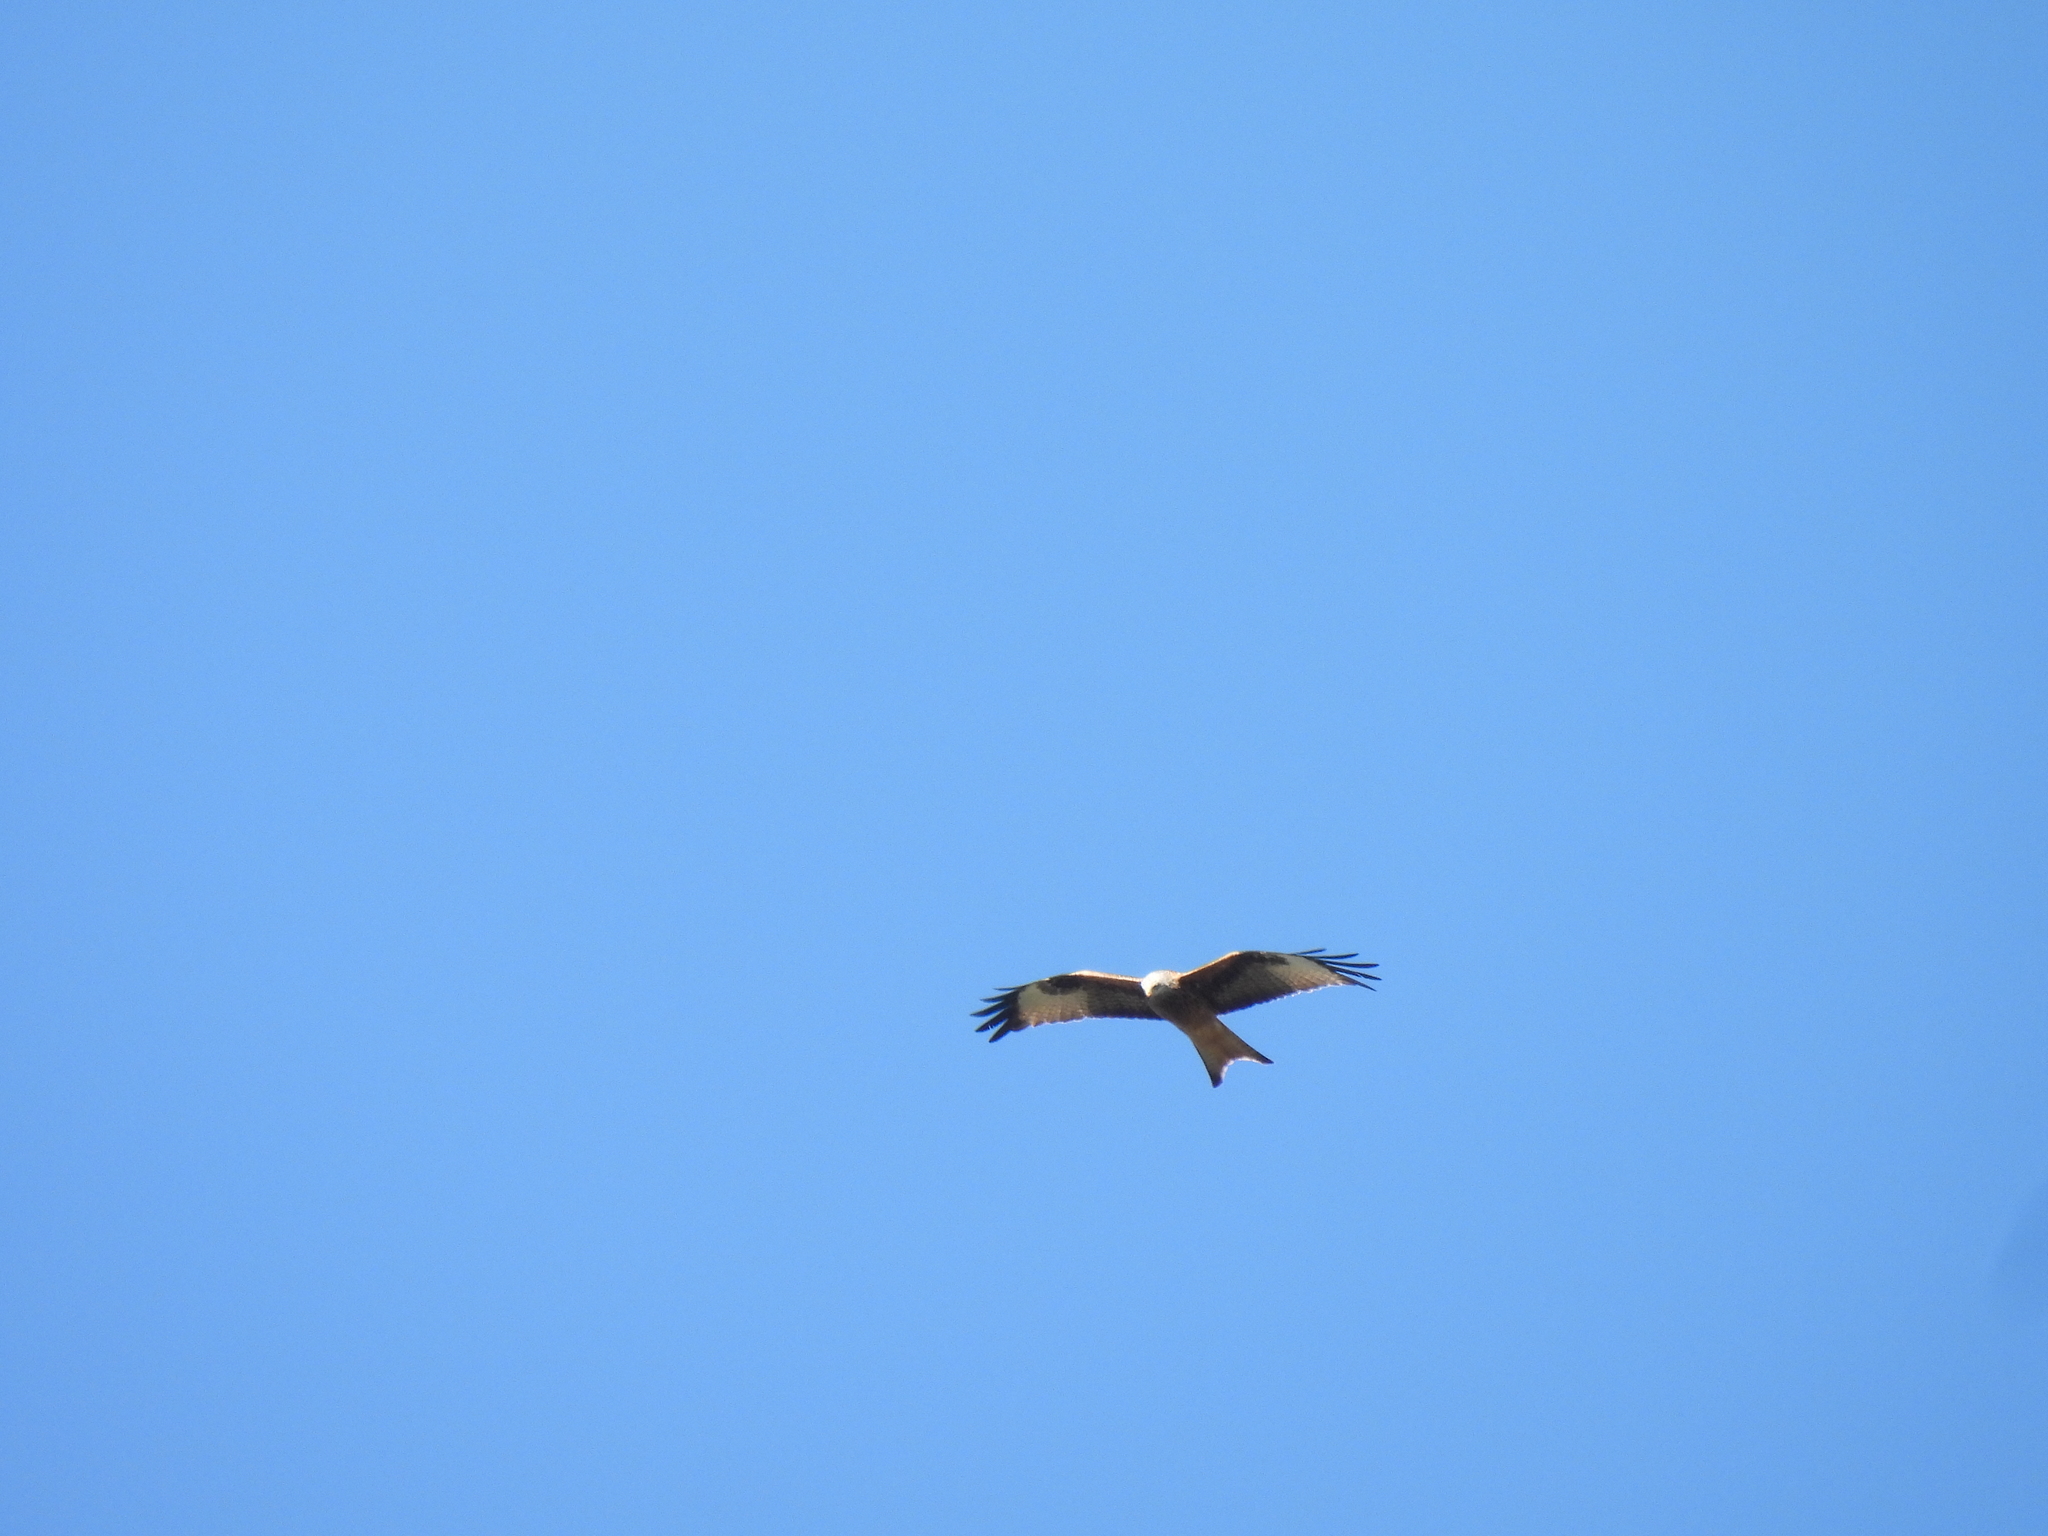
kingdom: Animalia
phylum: Chordata
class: Aves
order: Accipitriformes
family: Accipitridae
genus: Milvus
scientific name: Milvus milvus
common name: Red kite
